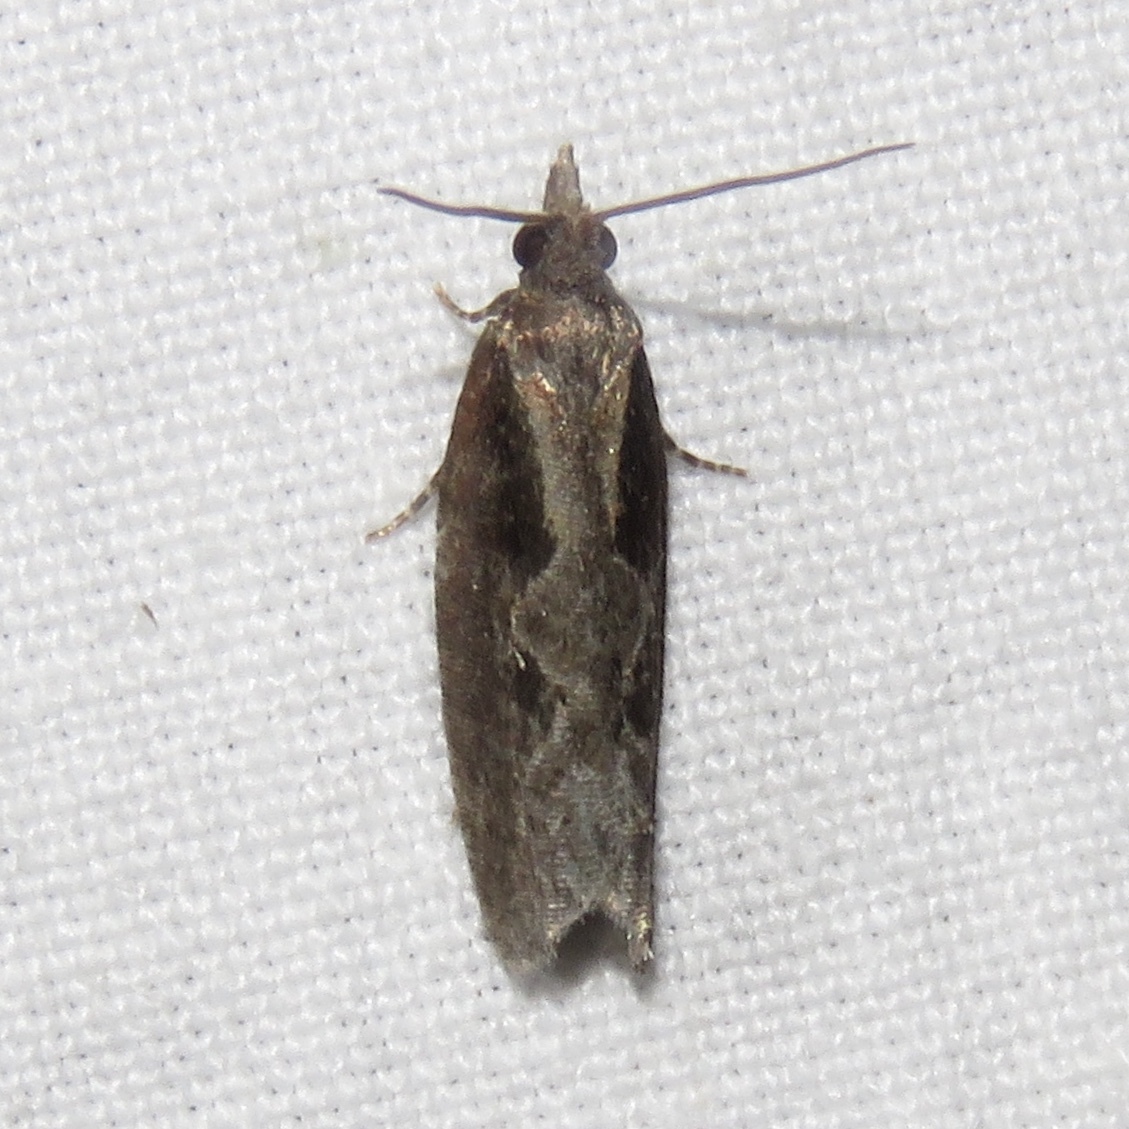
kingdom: Animalia
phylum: Arthropoda
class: Insecta
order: Lepidoptera
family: Tortricidae
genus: Epinotia
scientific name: Epinotia lindana
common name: Diamondback epinotia moth
